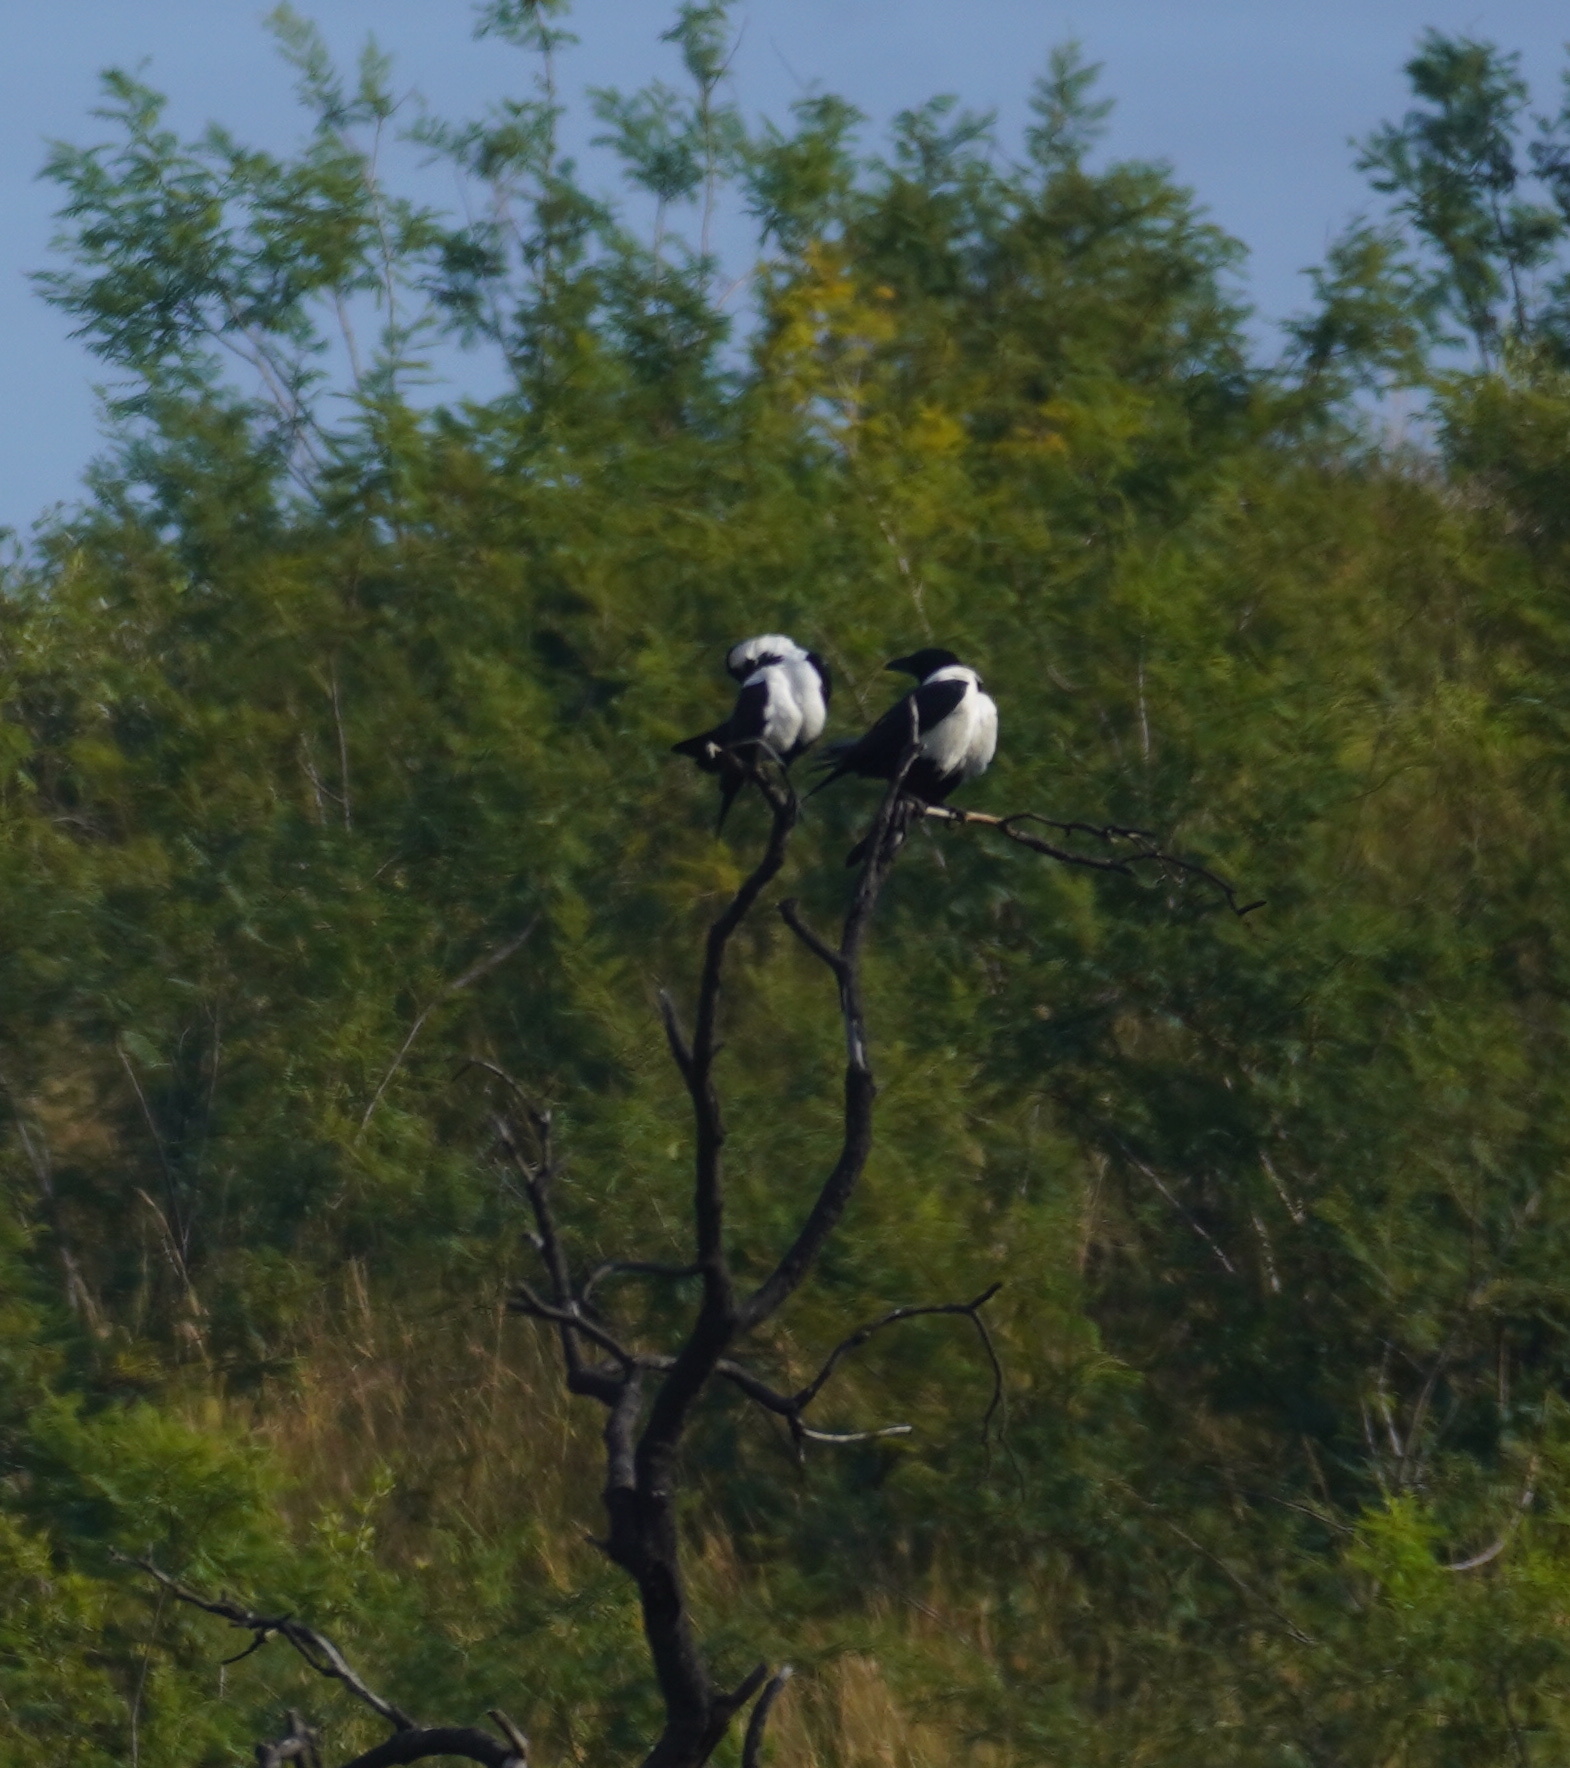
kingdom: Animalia
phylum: Chordata
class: Aves
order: Passeriformes
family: Corvidae
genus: Corvus
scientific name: Corvus albus
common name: Pied crow
